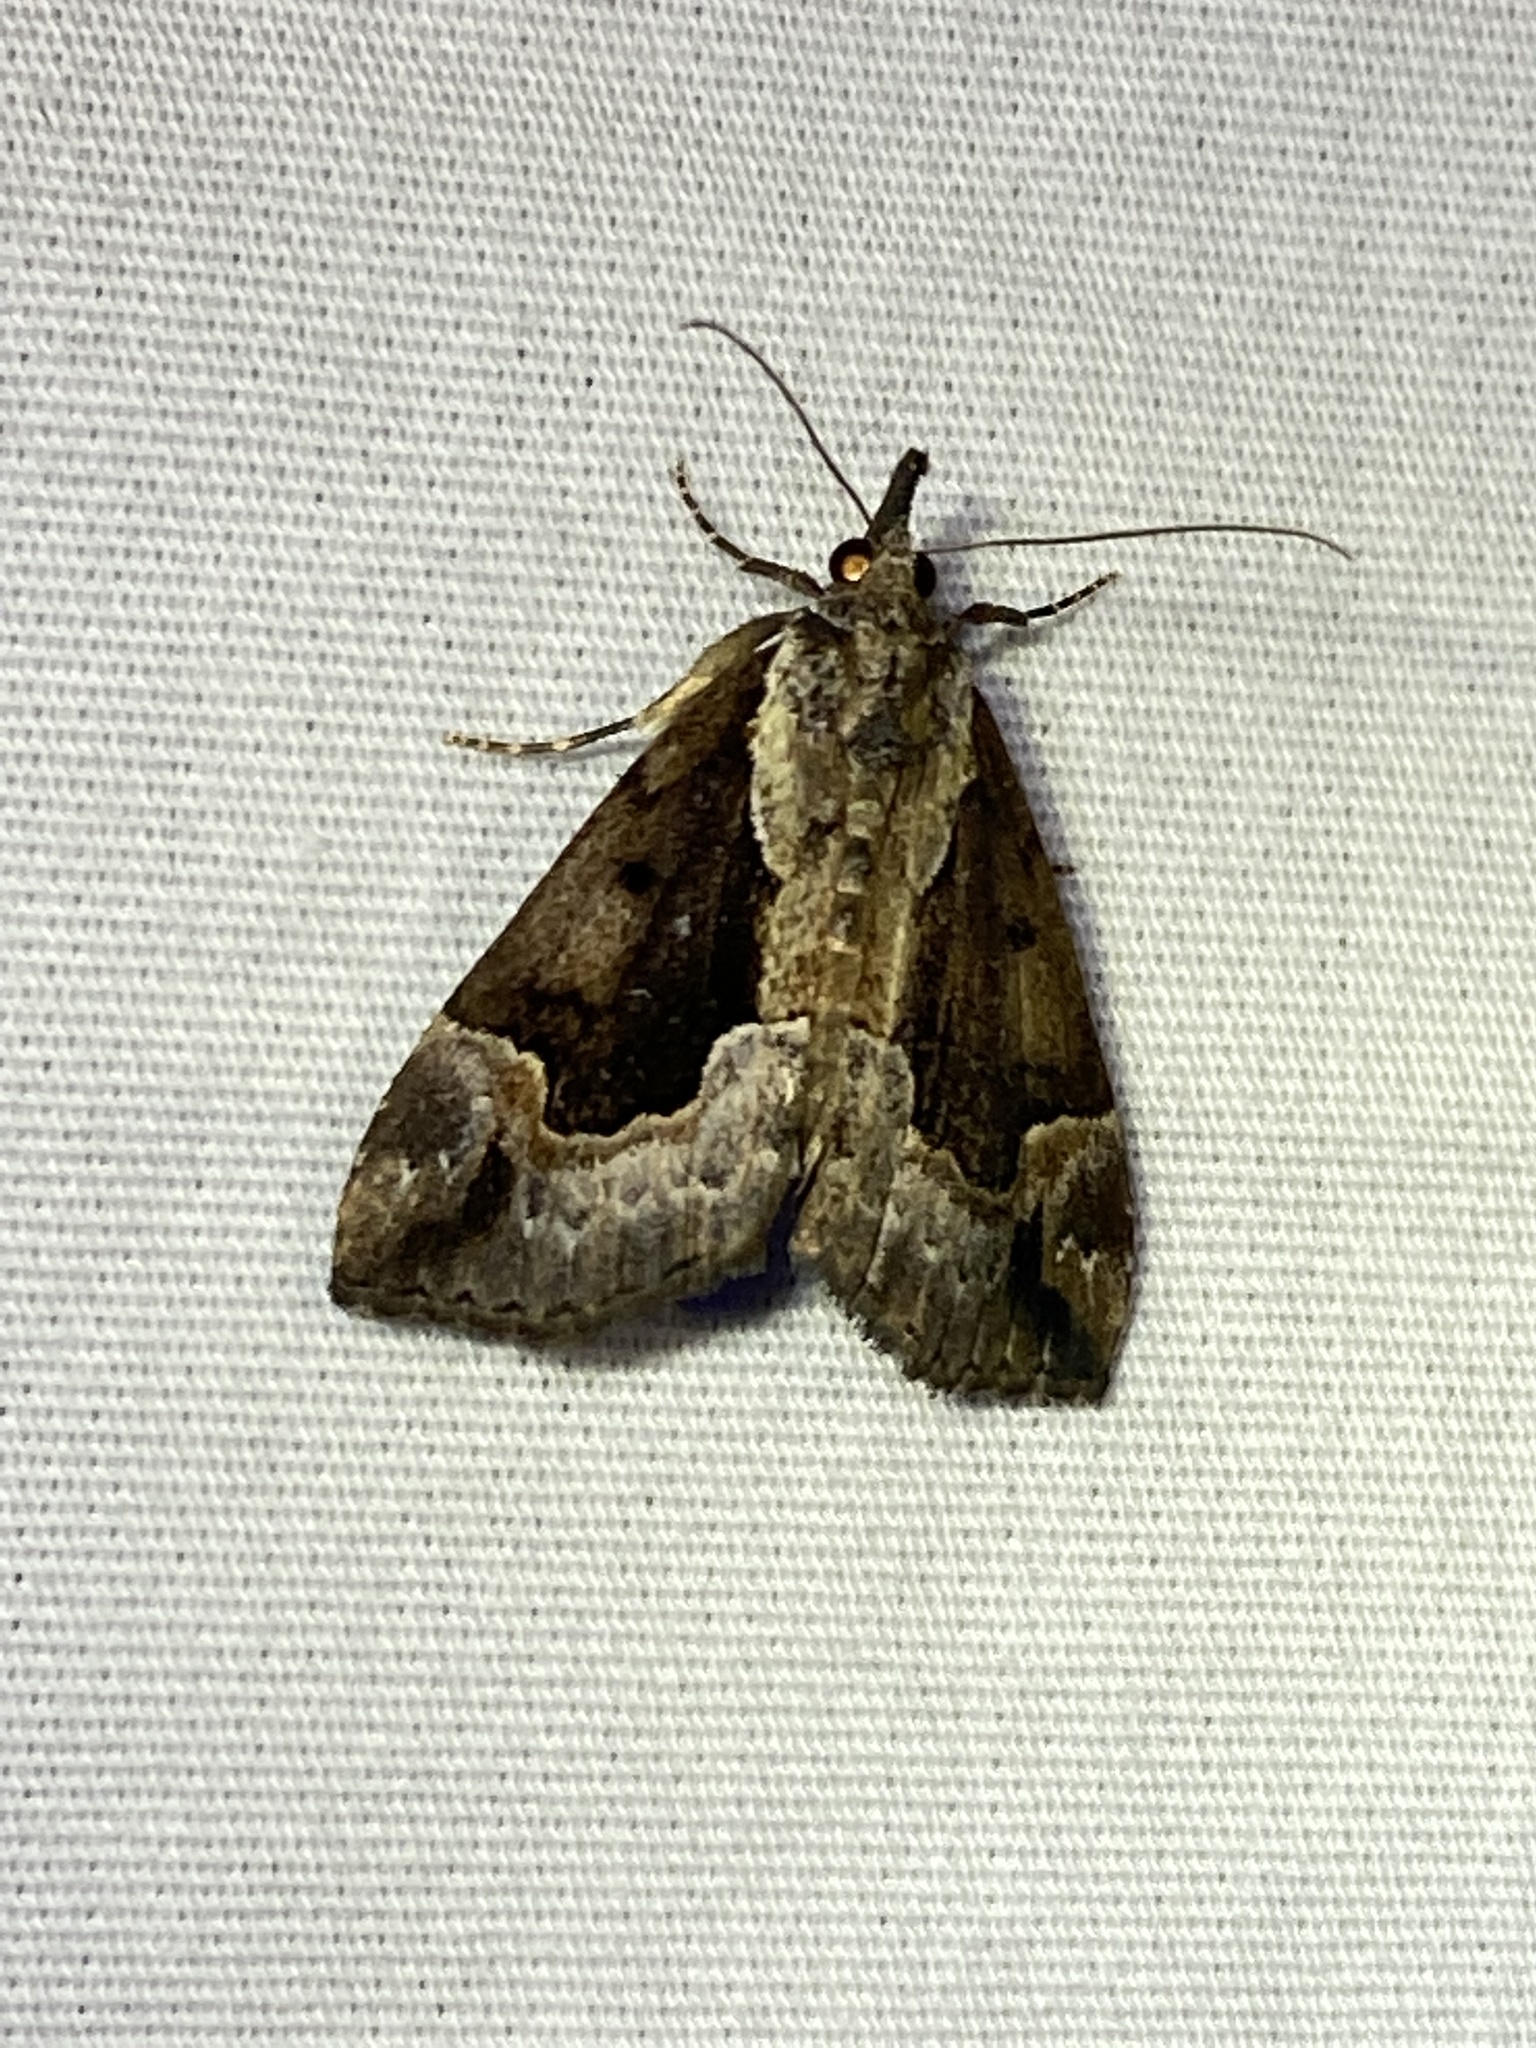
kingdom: Animalia
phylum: Arthropoda
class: Insecta
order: Lepidoptera
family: Erebidae
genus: Hypena
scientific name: Hypena baltimoralis
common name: Baltimore snout
